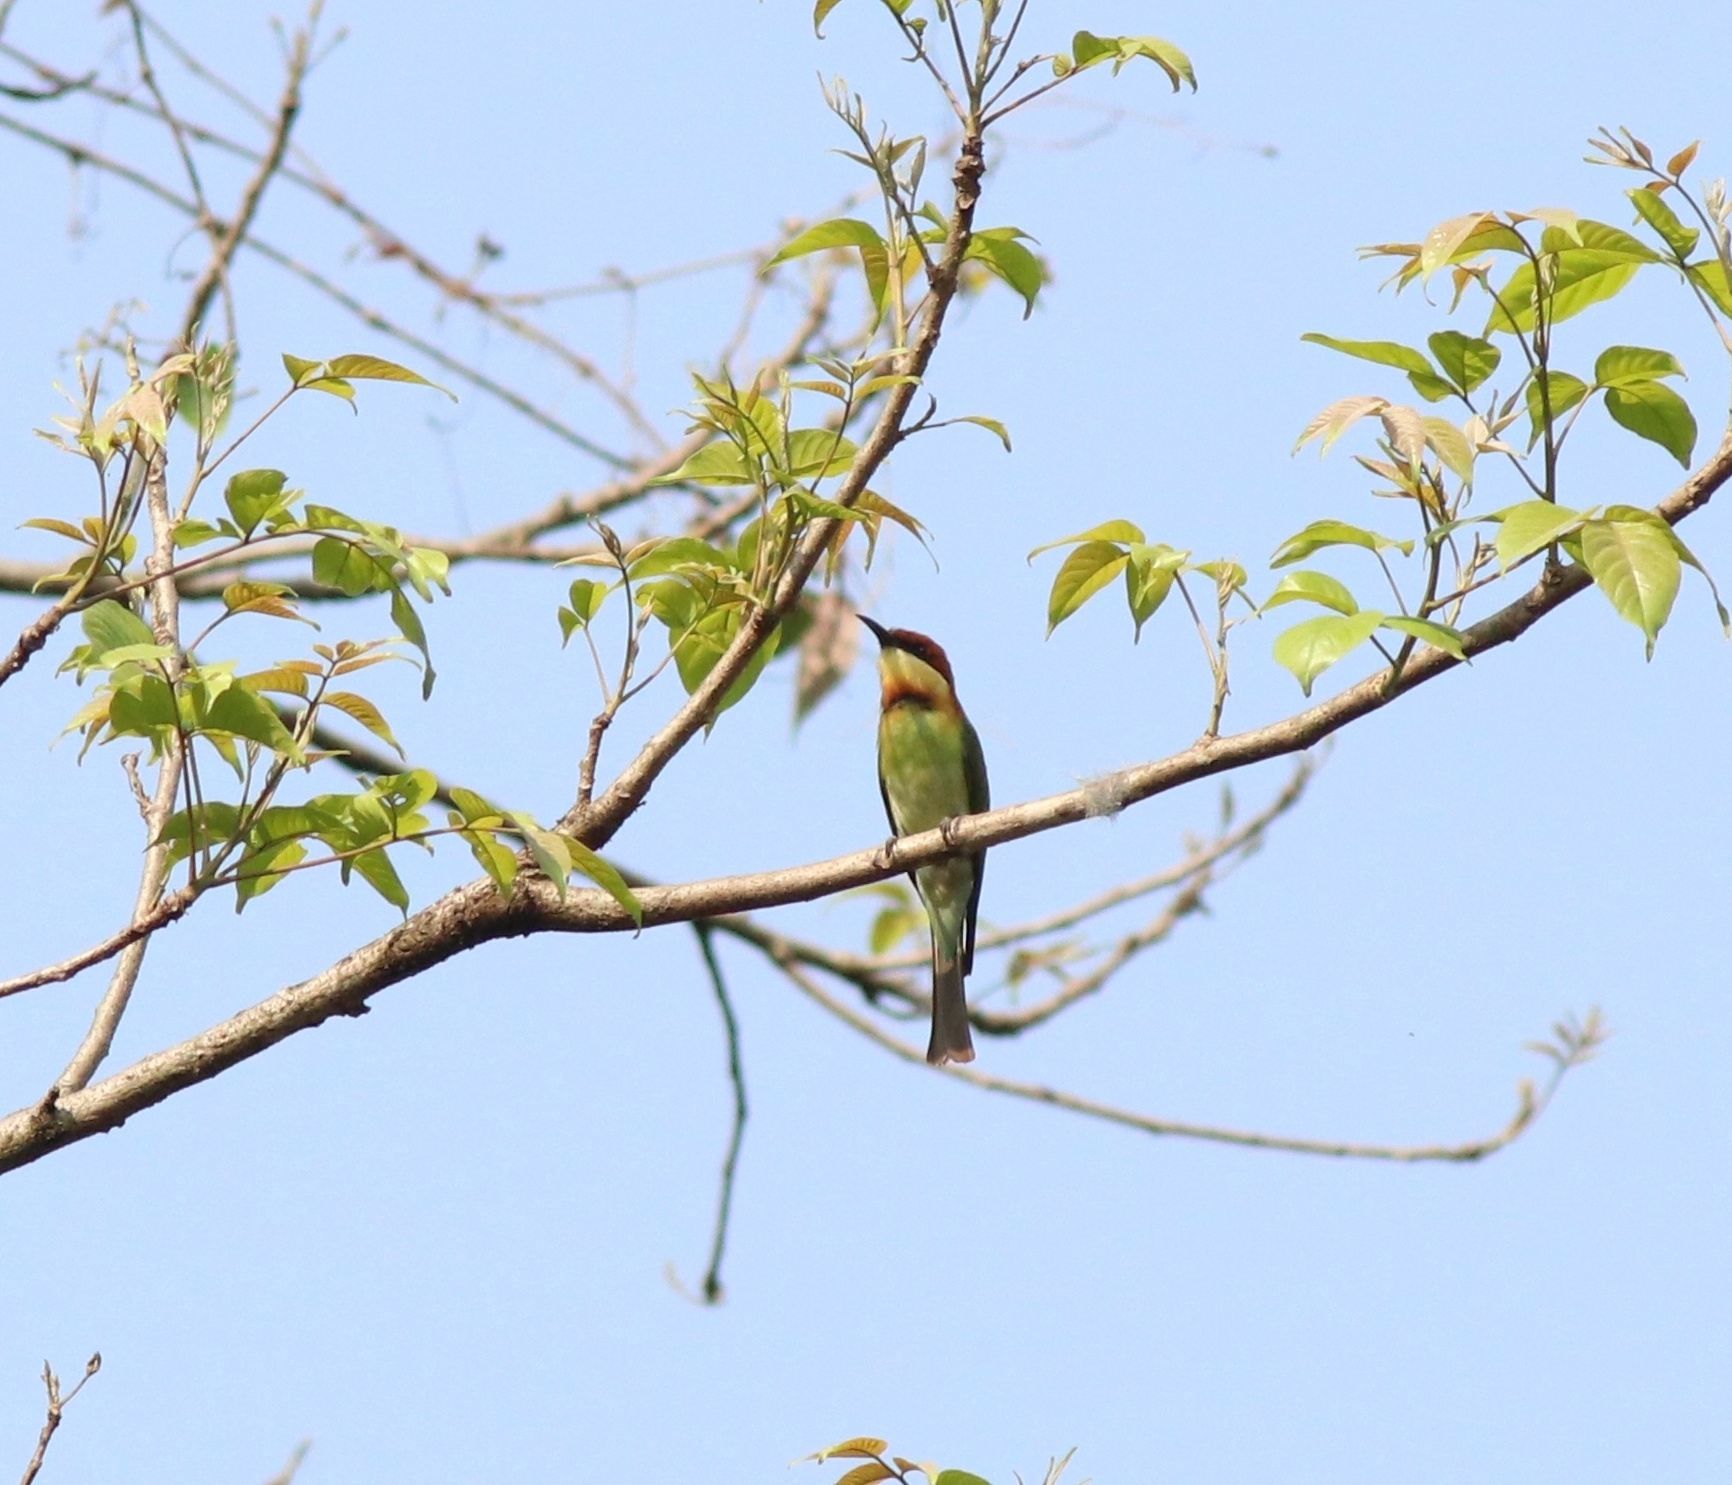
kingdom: Animalia
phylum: Chordata
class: Aves
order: Coraciiformes
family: Meropidae
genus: Merops
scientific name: Merops leschenaulti
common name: Chestnut-headed bee-eater
